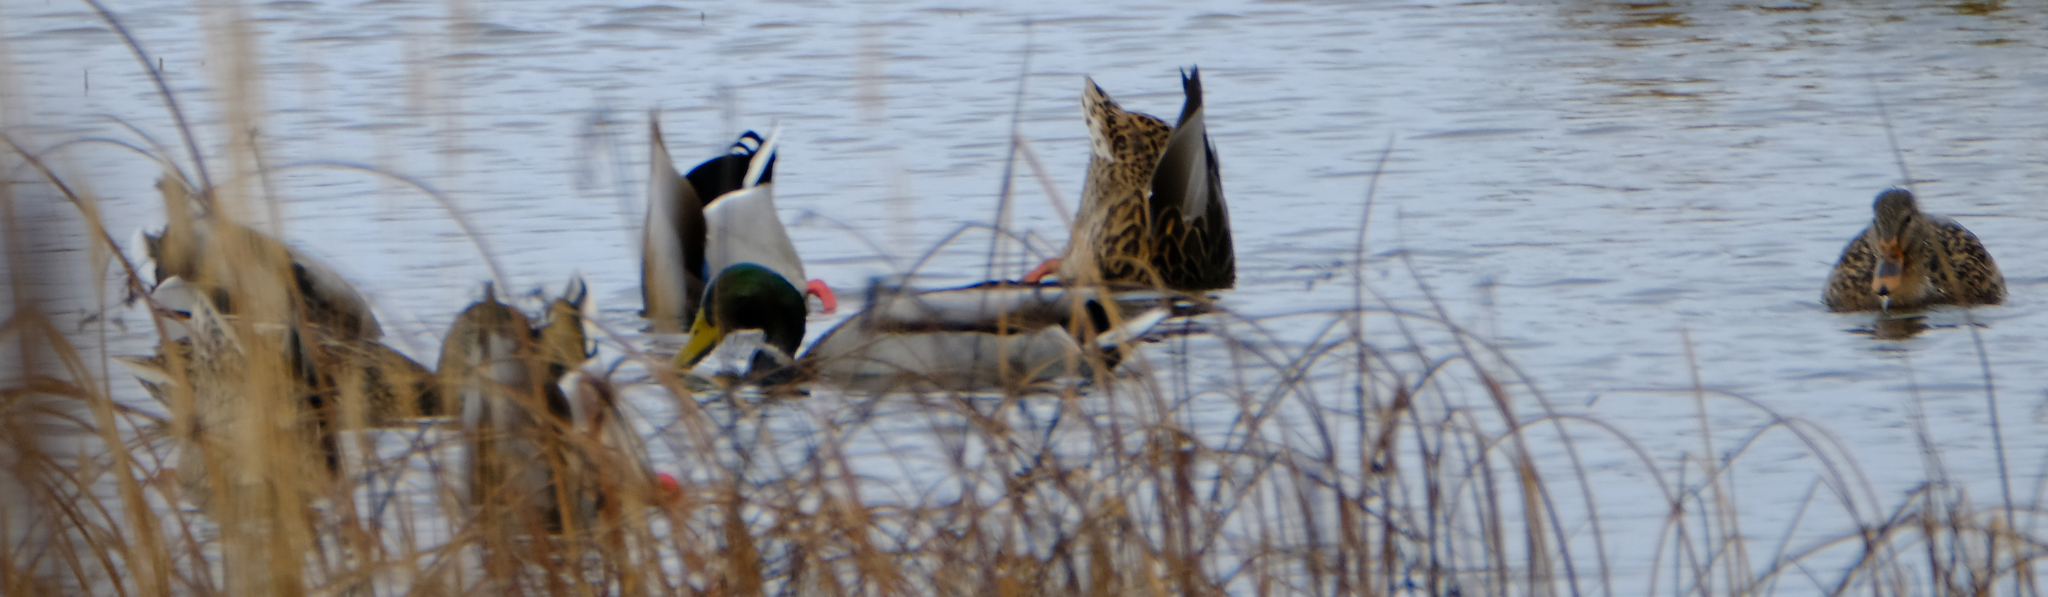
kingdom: Animalia
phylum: Chordata
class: Aves
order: Anseriformes
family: Anatidae
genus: Anas
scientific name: Anas platyrhynchos
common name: Mallard
